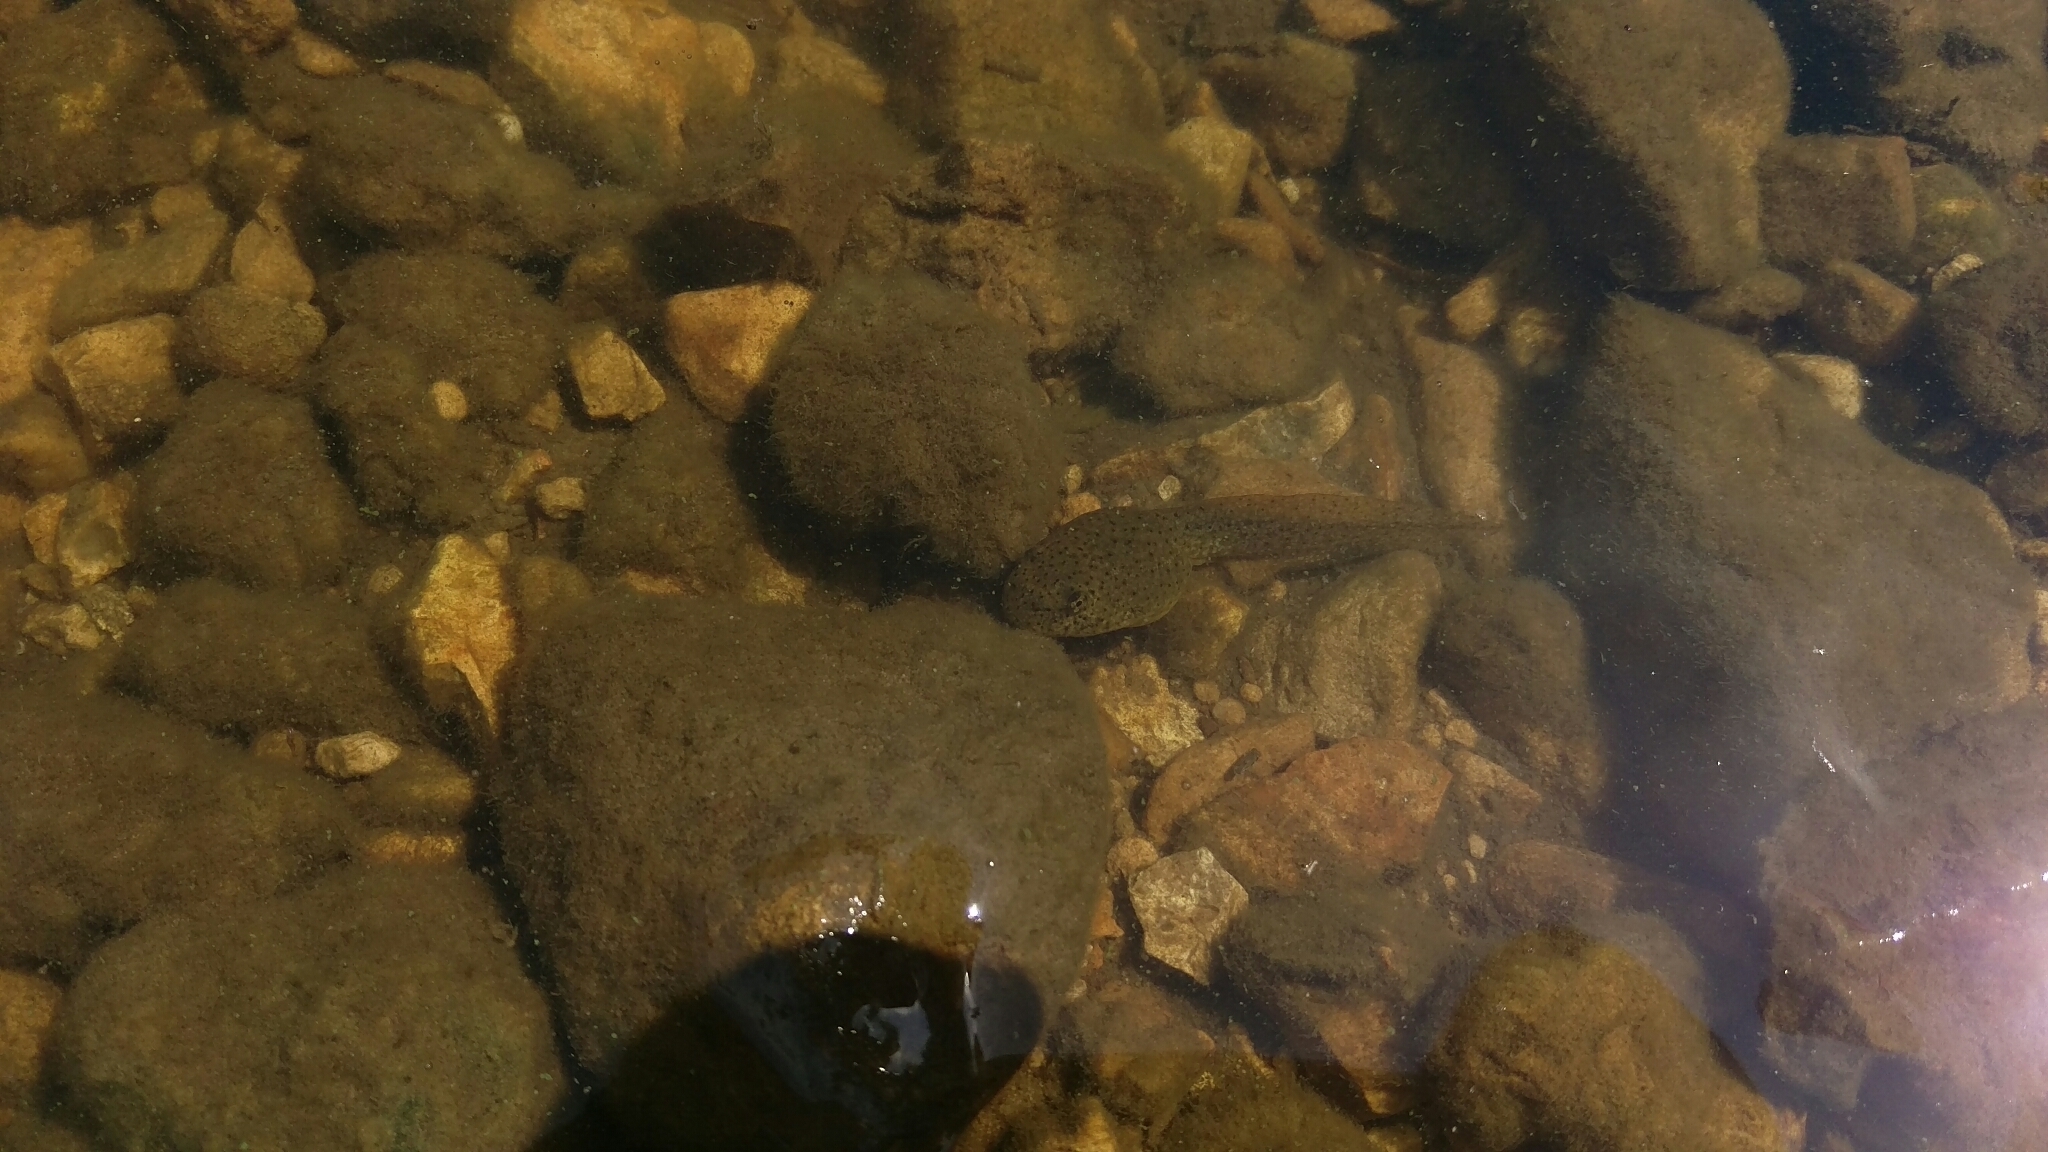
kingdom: Animalia
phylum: Chordata
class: Amphibia
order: Anura
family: Ranidae
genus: Lithobates
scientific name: Lithobates catesbeianus
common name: American bullfrog
